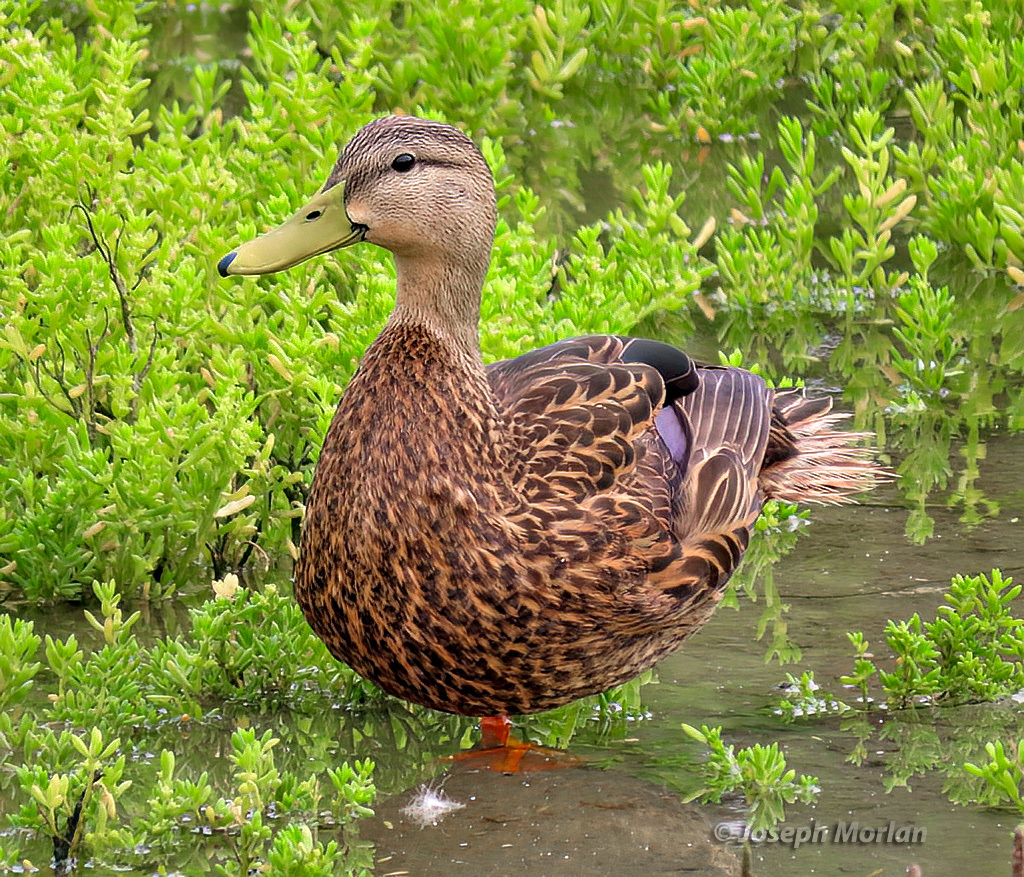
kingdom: Animalia
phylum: Chordata
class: Aves
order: Anseriformes
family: Anatidae
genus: Anas
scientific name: Anas fulvigula
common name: Mottled duck
